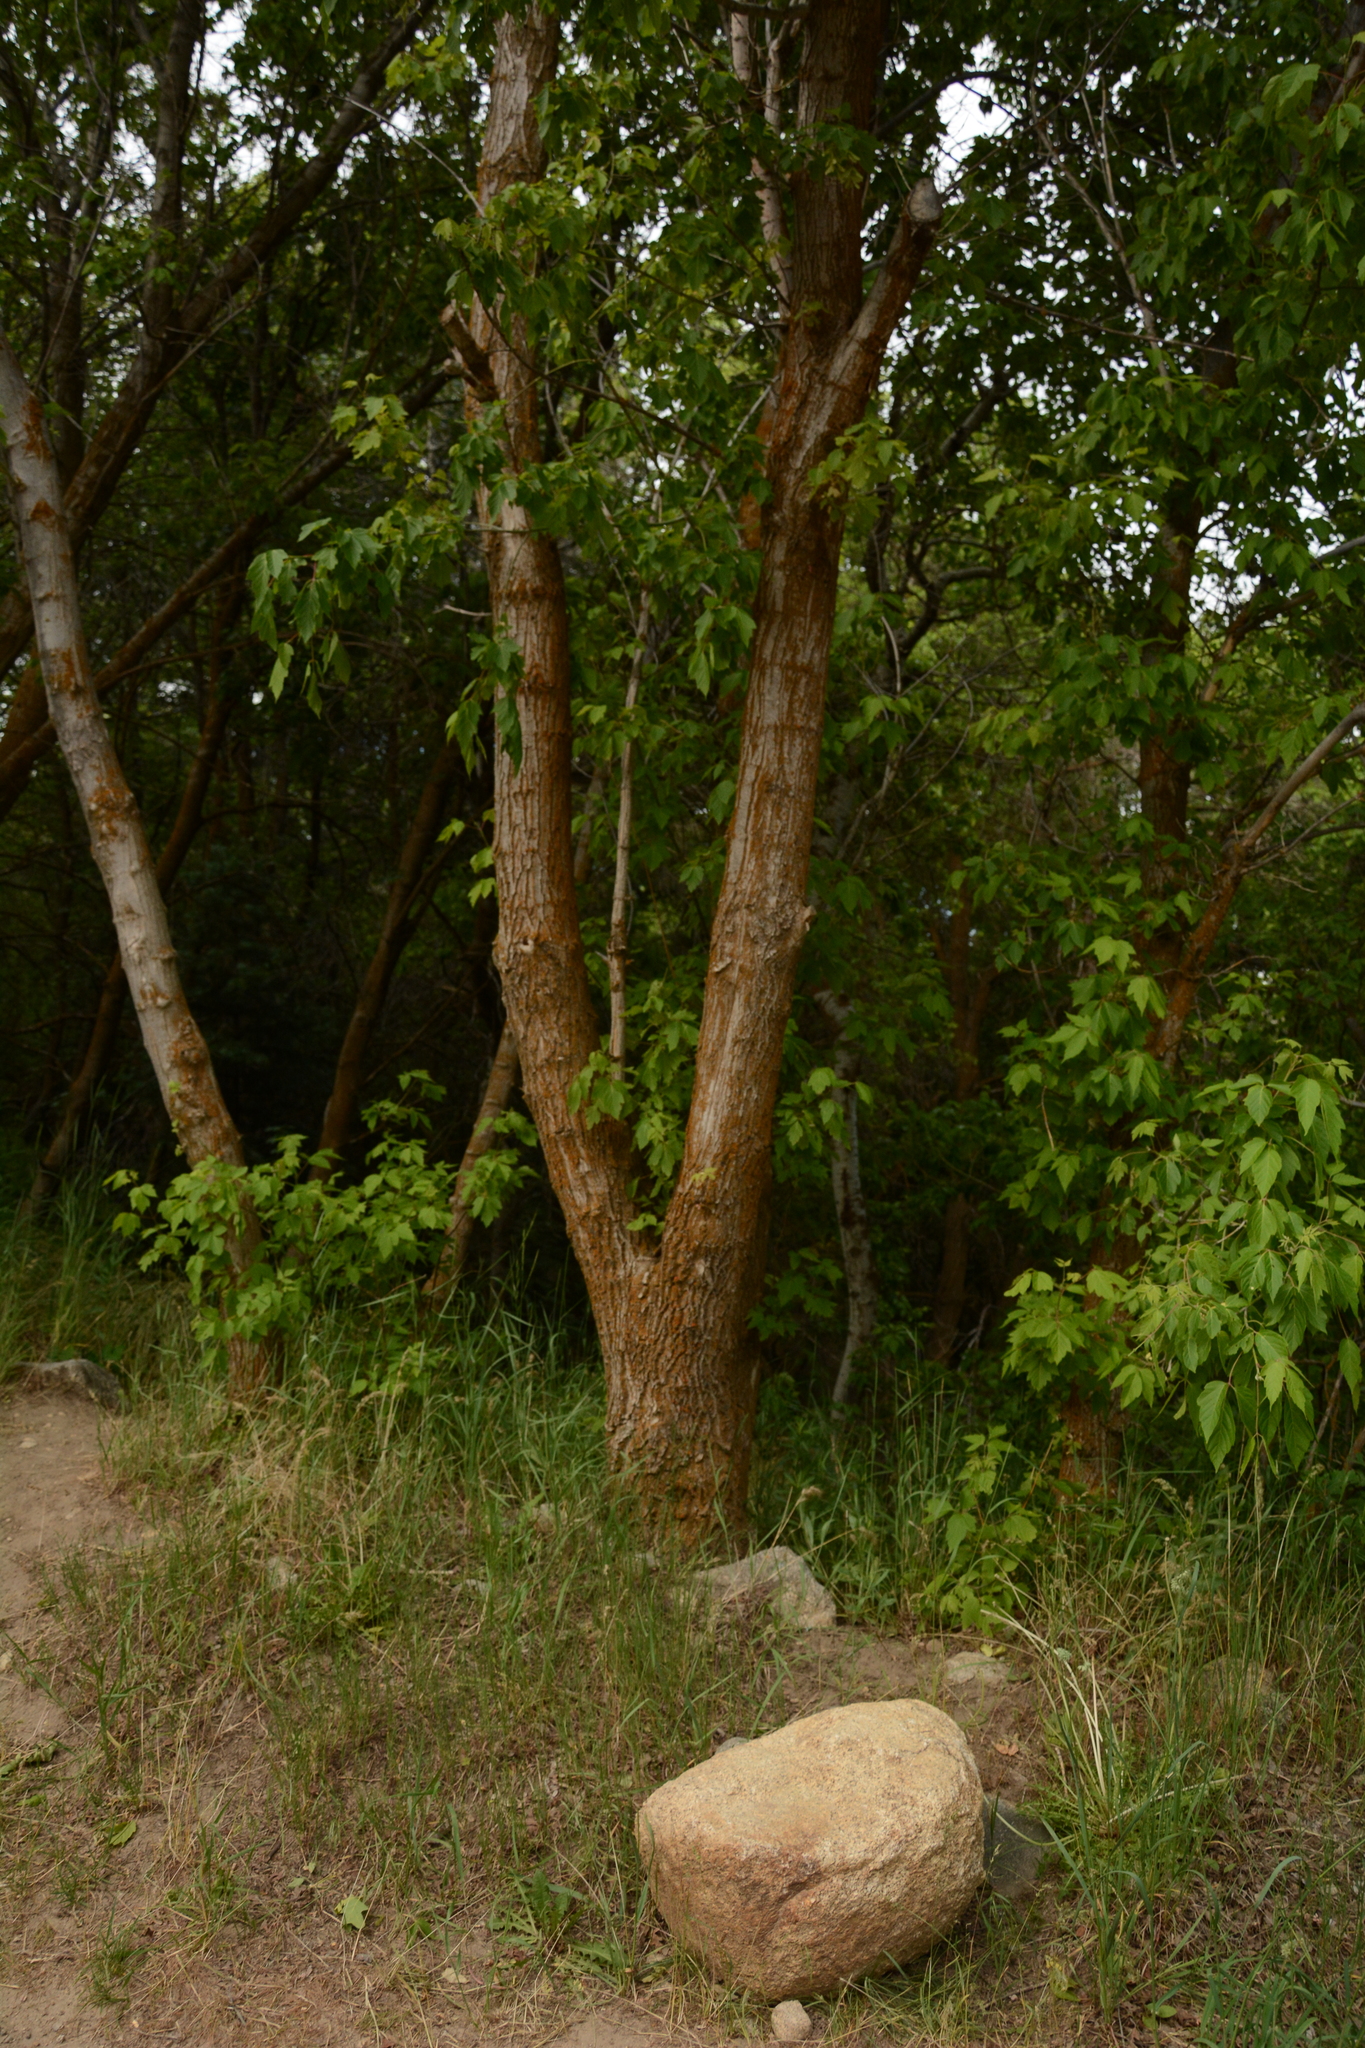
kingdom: Plantae
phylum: Tracheophyta
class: Magnoliopsida
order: Sapindales
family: Sapindaceae
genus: Acer
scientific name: Acer negundo
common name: Ashleaf maple
